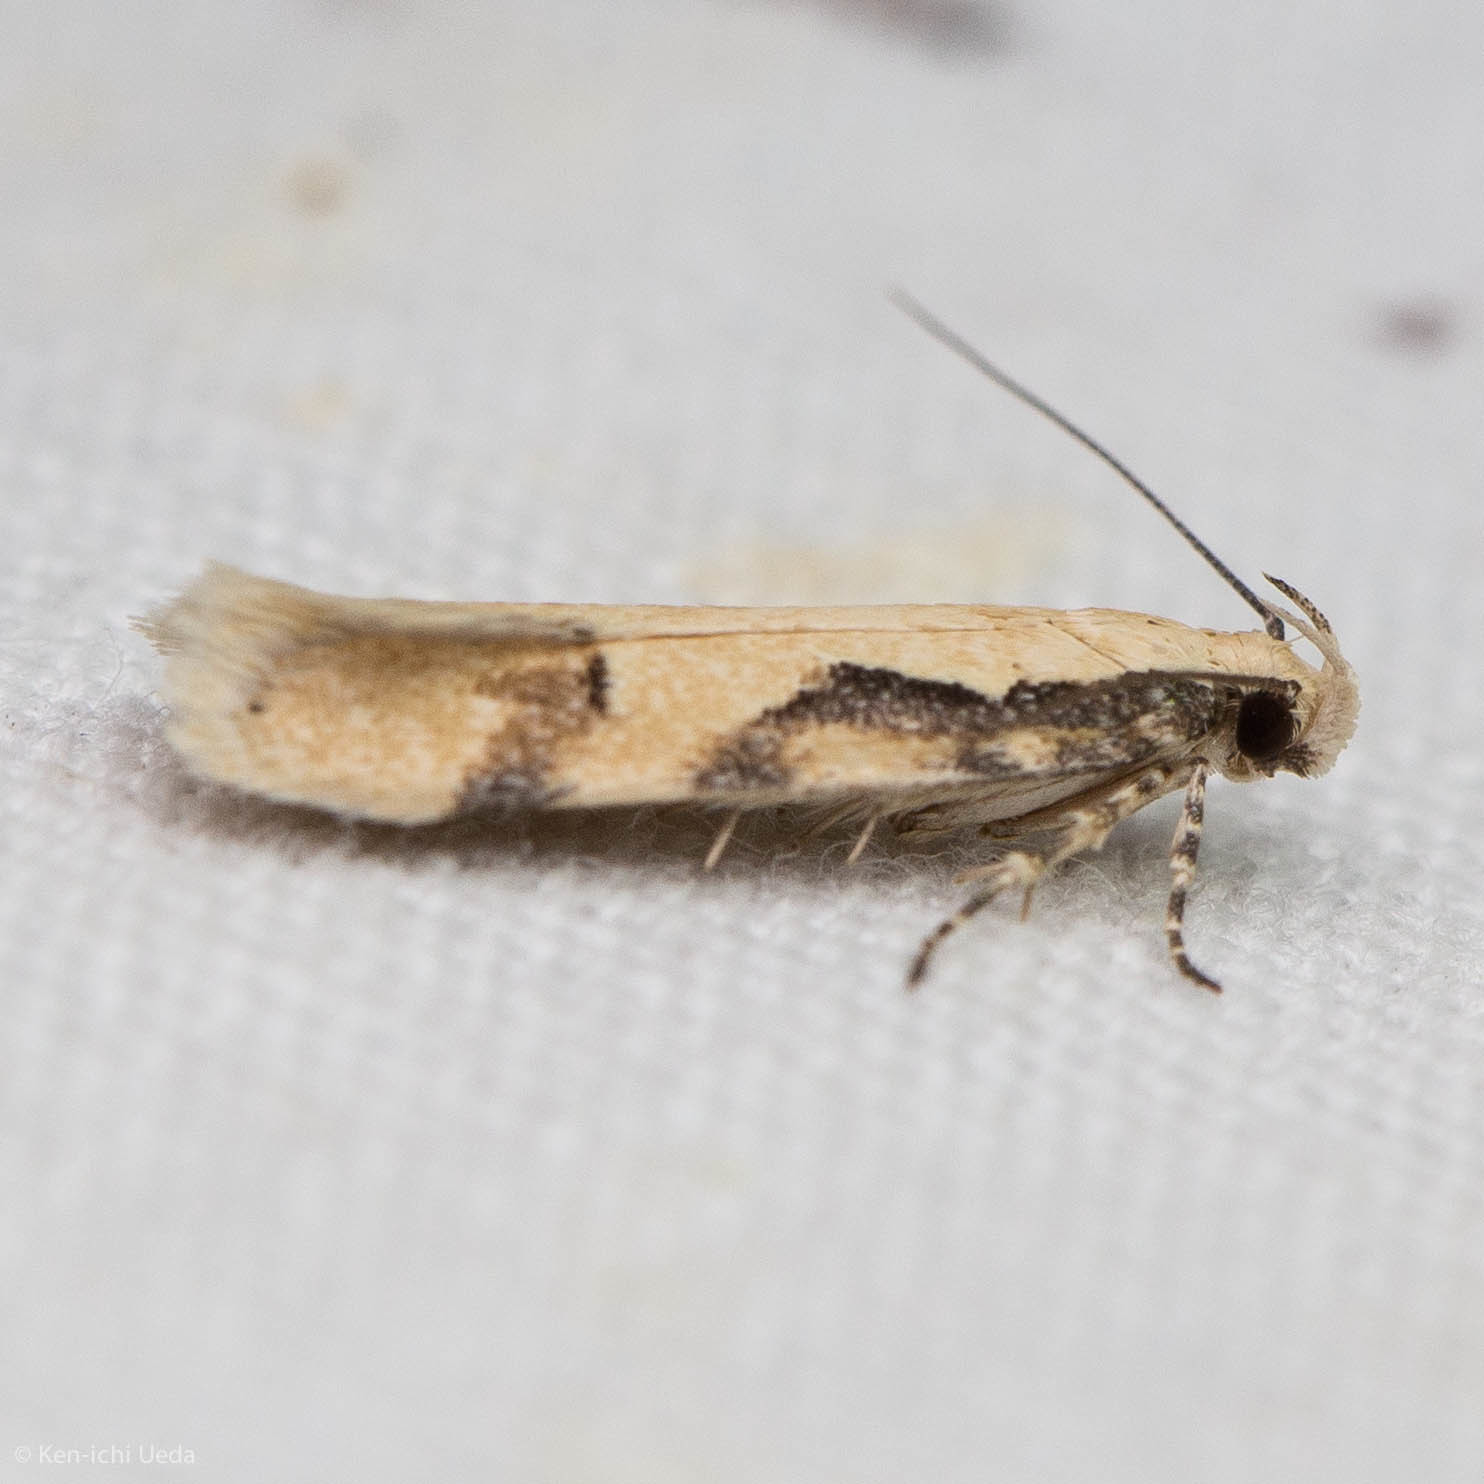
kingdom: Animalia
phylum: Arthropoda
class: Insecta
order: Lepidoptera
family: Gelechiidae
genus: Chionodes
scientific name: Chionodes xanthophilella
